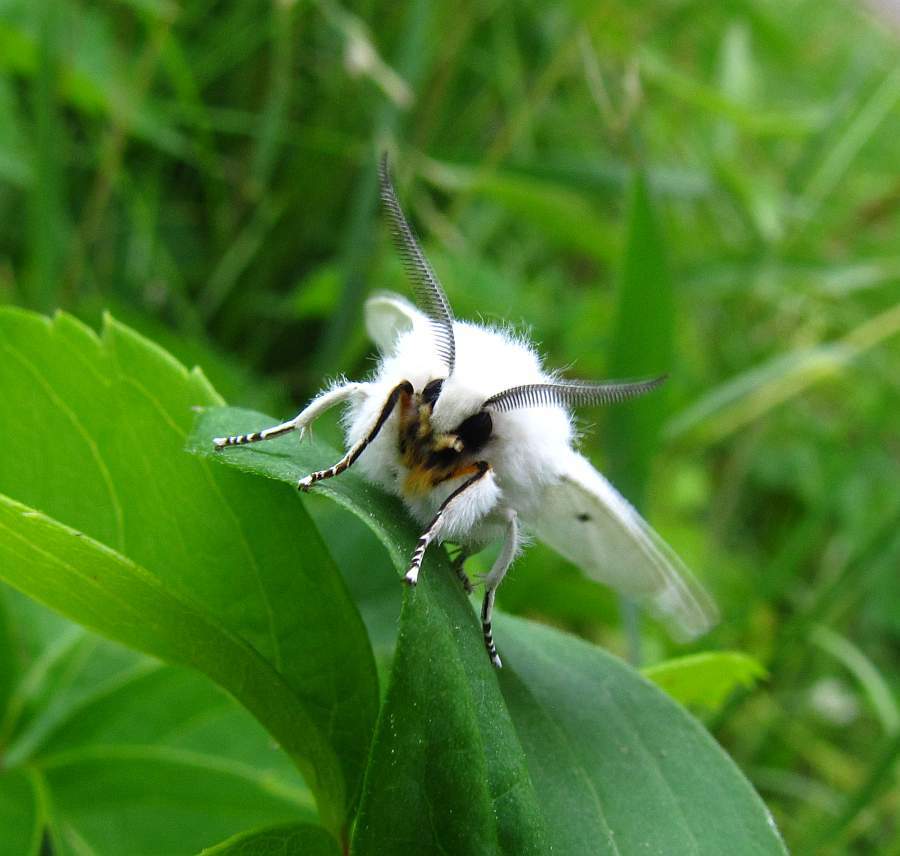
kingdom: Animalia
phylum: Arthropoda
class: Insecta
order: Lepidoptera
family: Erebidae
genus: Spilosoma
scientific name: Spilosoma virginica
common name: Virginia tiger moth
